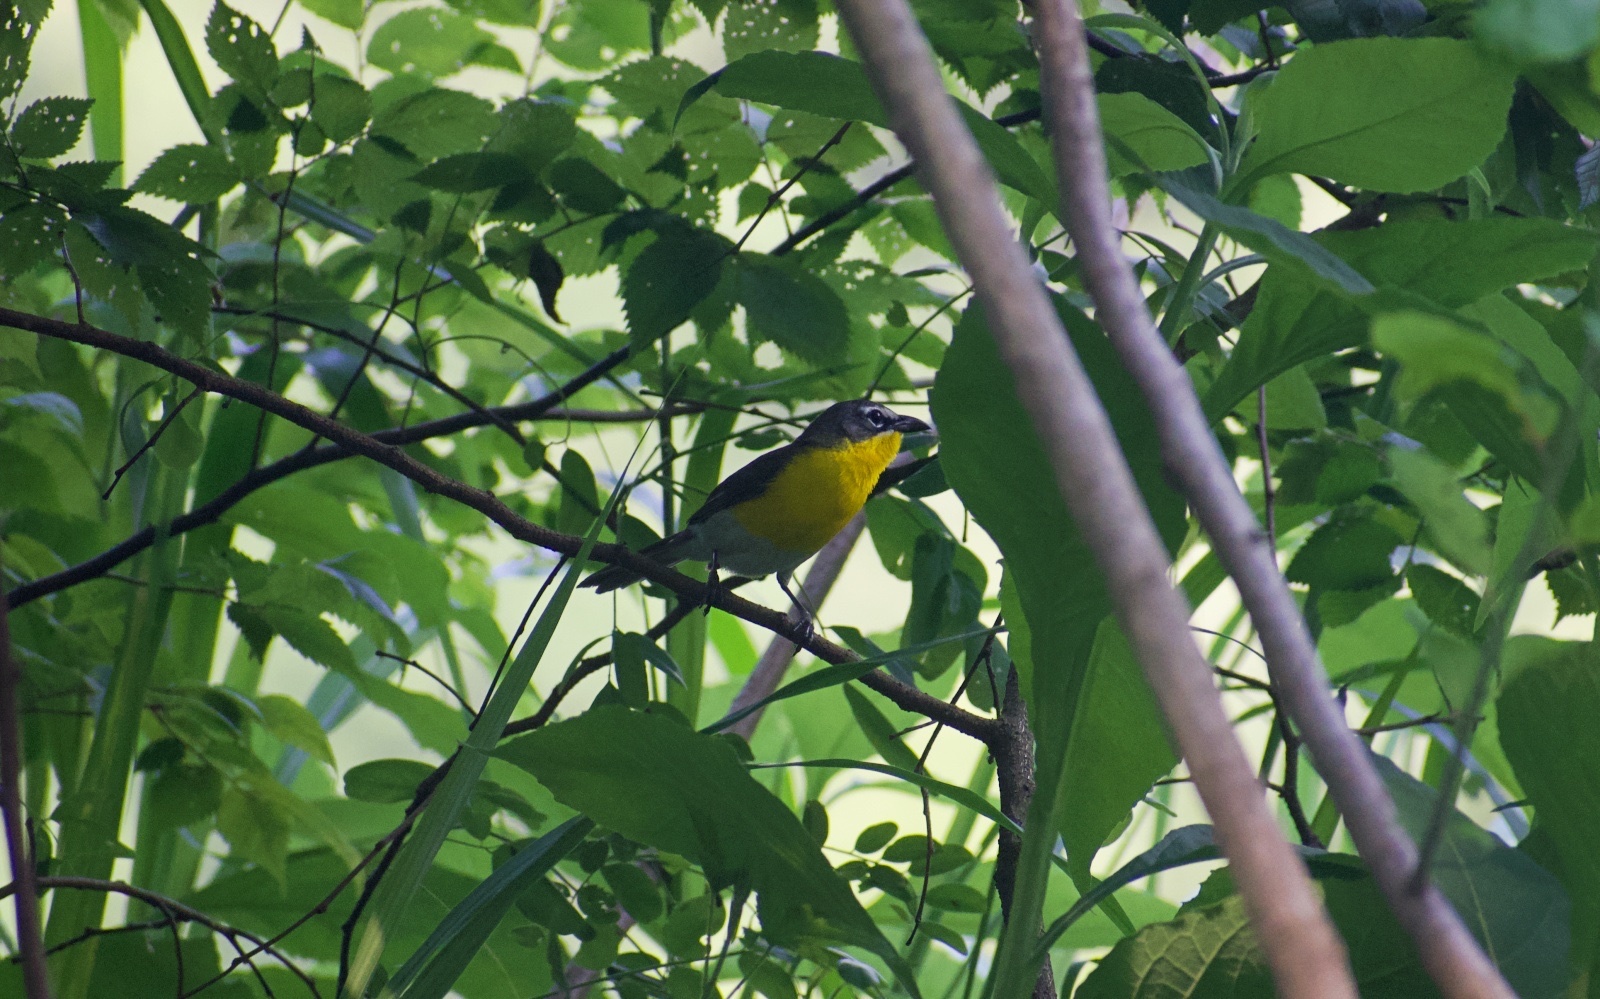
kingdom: Animalia
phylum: Chordata
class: Aves
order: Passeriformes
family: Parulidae
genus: Icteria
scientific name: Icteria virens
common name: Yellow-breasted chat
